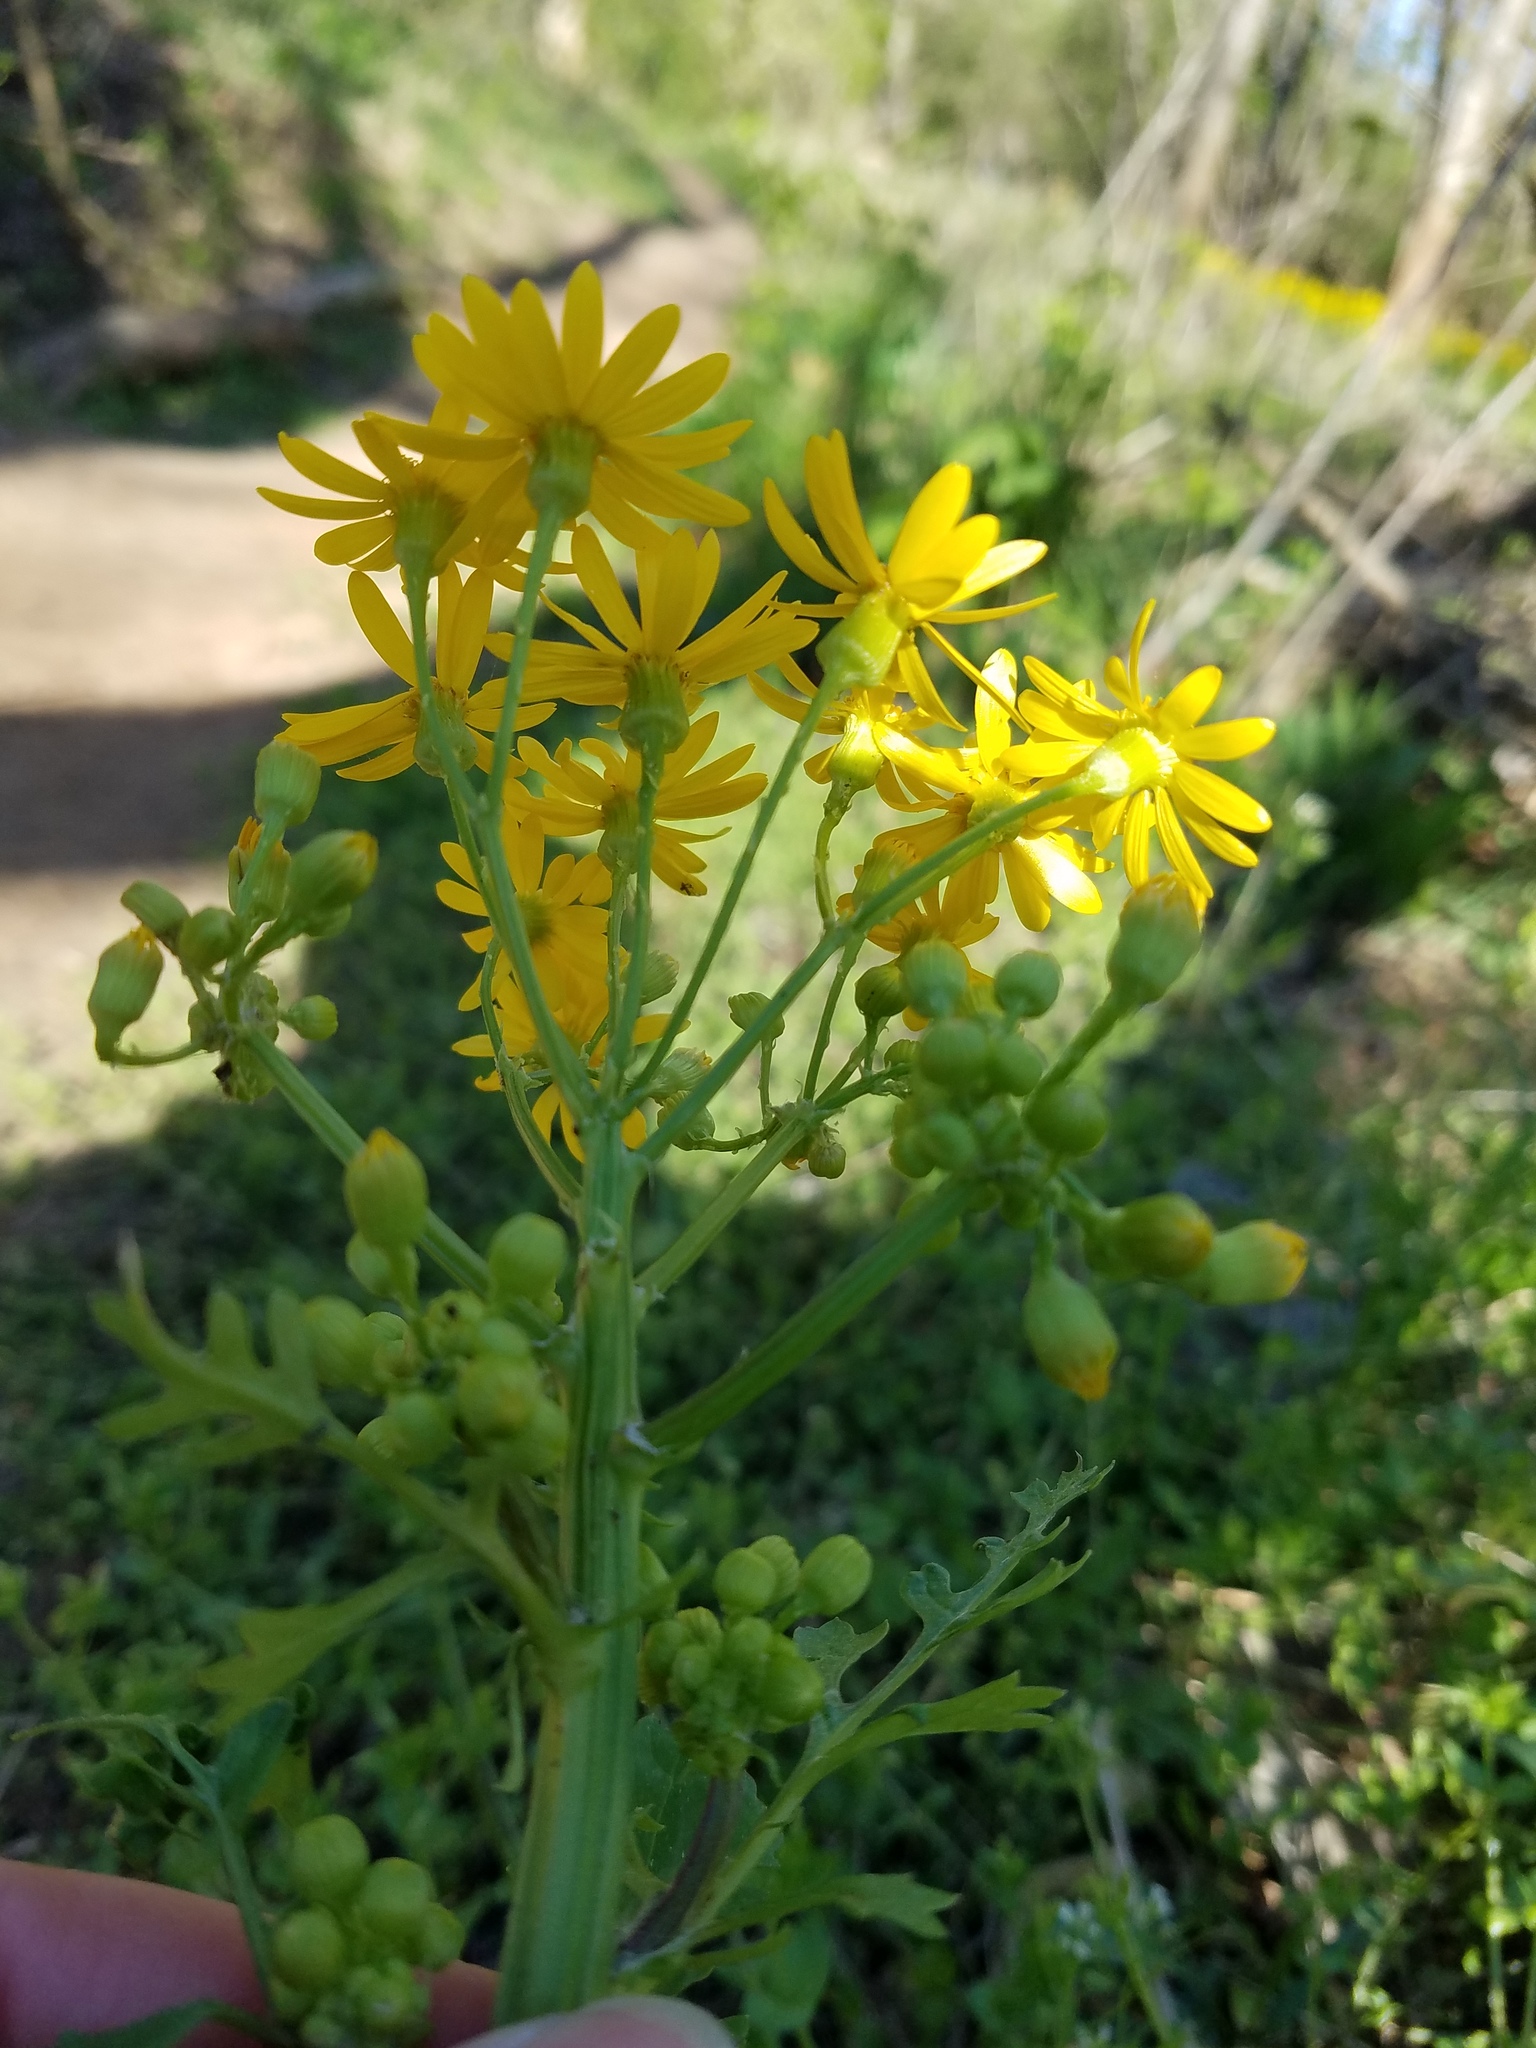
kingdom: Plantae
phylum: Tracheophyta
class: Magnoliopsida
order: Asterales
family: Asteraceae
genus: Packera
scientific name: Packera glabella
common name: Butterweed
